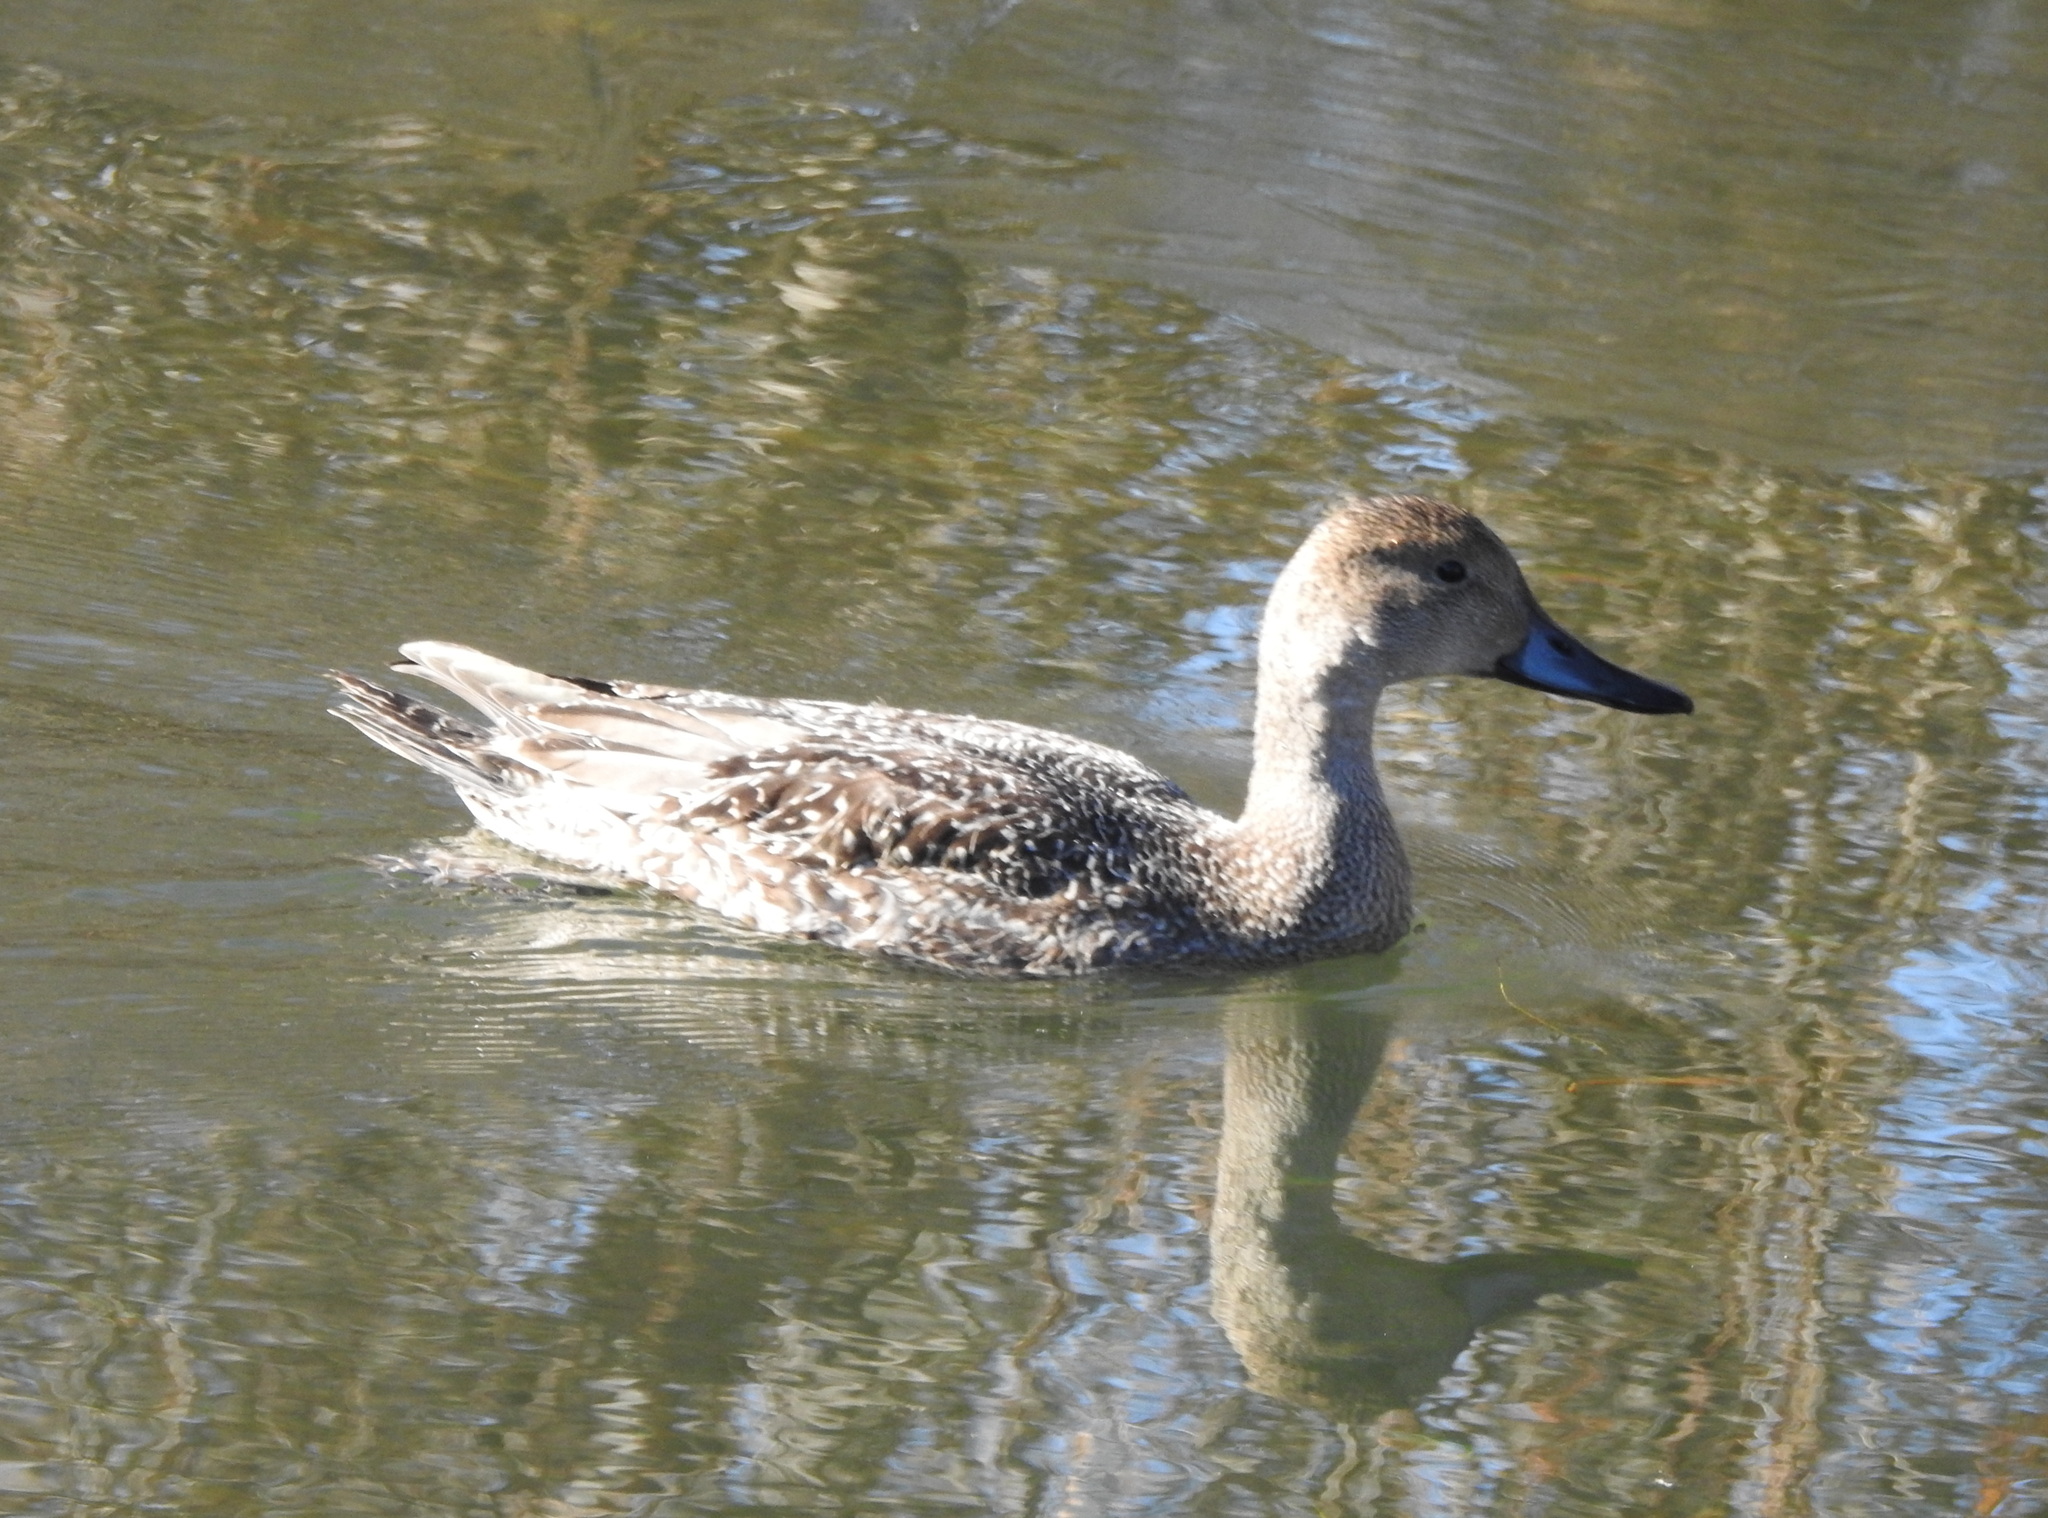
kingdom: Animalia
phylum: Chordata
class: Aves
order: Anseriformes
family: Anatidae
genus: Anas
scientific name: Anas acuta
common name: Northern pintail
